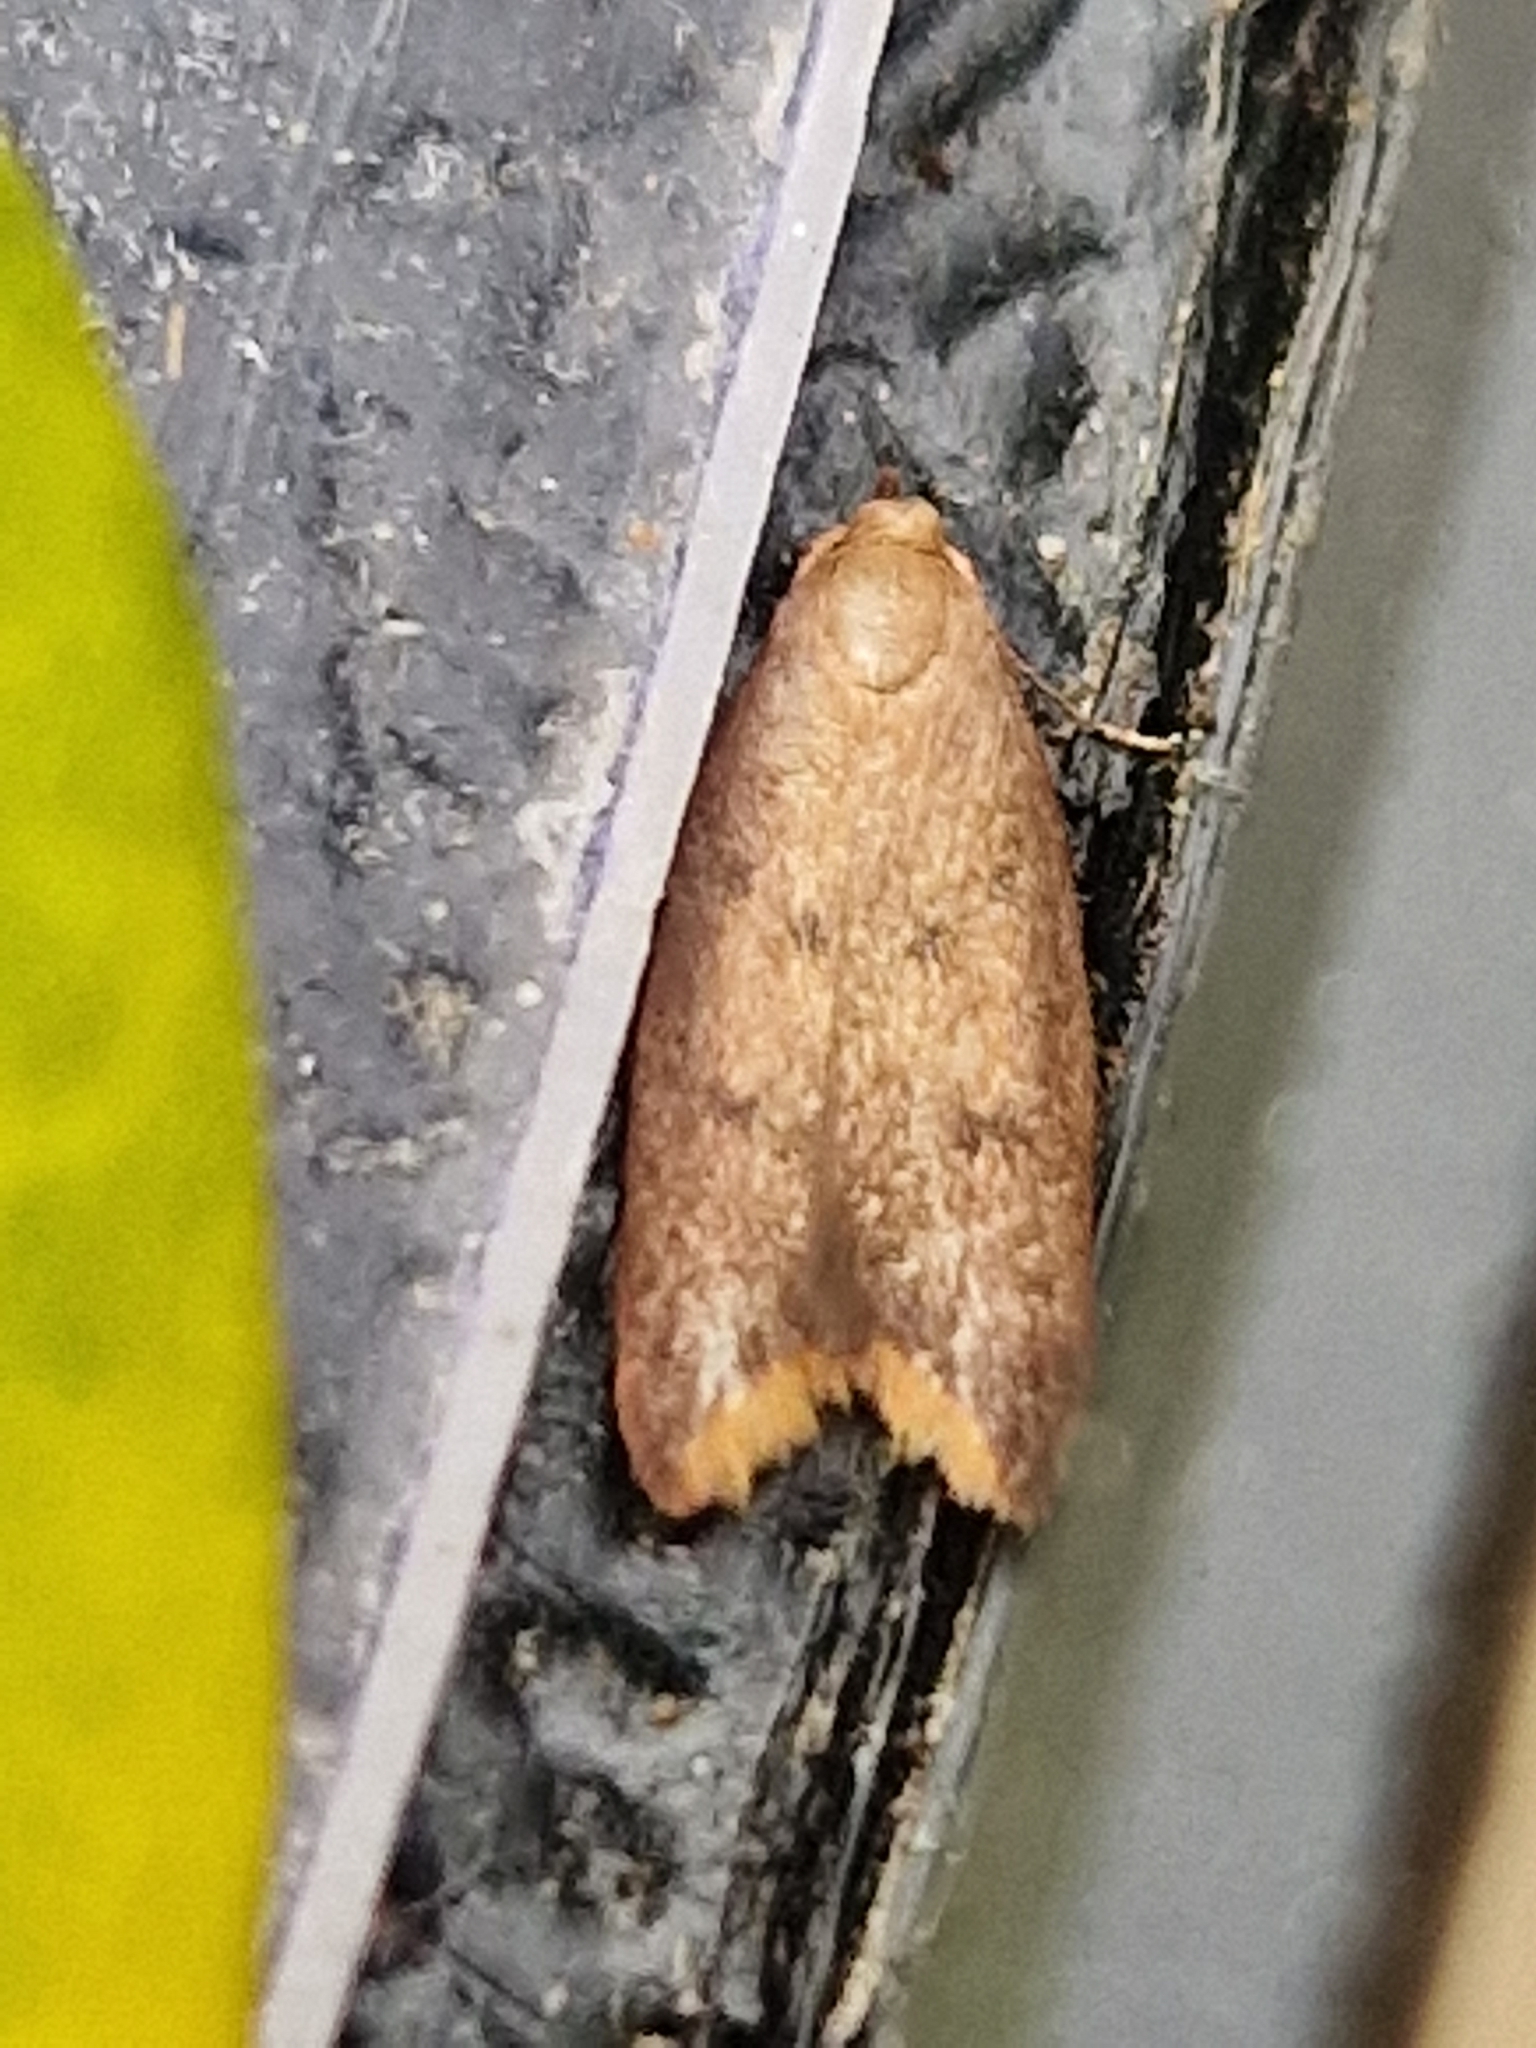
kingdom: Animalia
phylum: Arthropoda
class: Insecta
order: Lepidoptera
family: Oecophoridae
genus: Tachystola
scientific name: Tachystola acroxantha
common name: Ruddy streak
